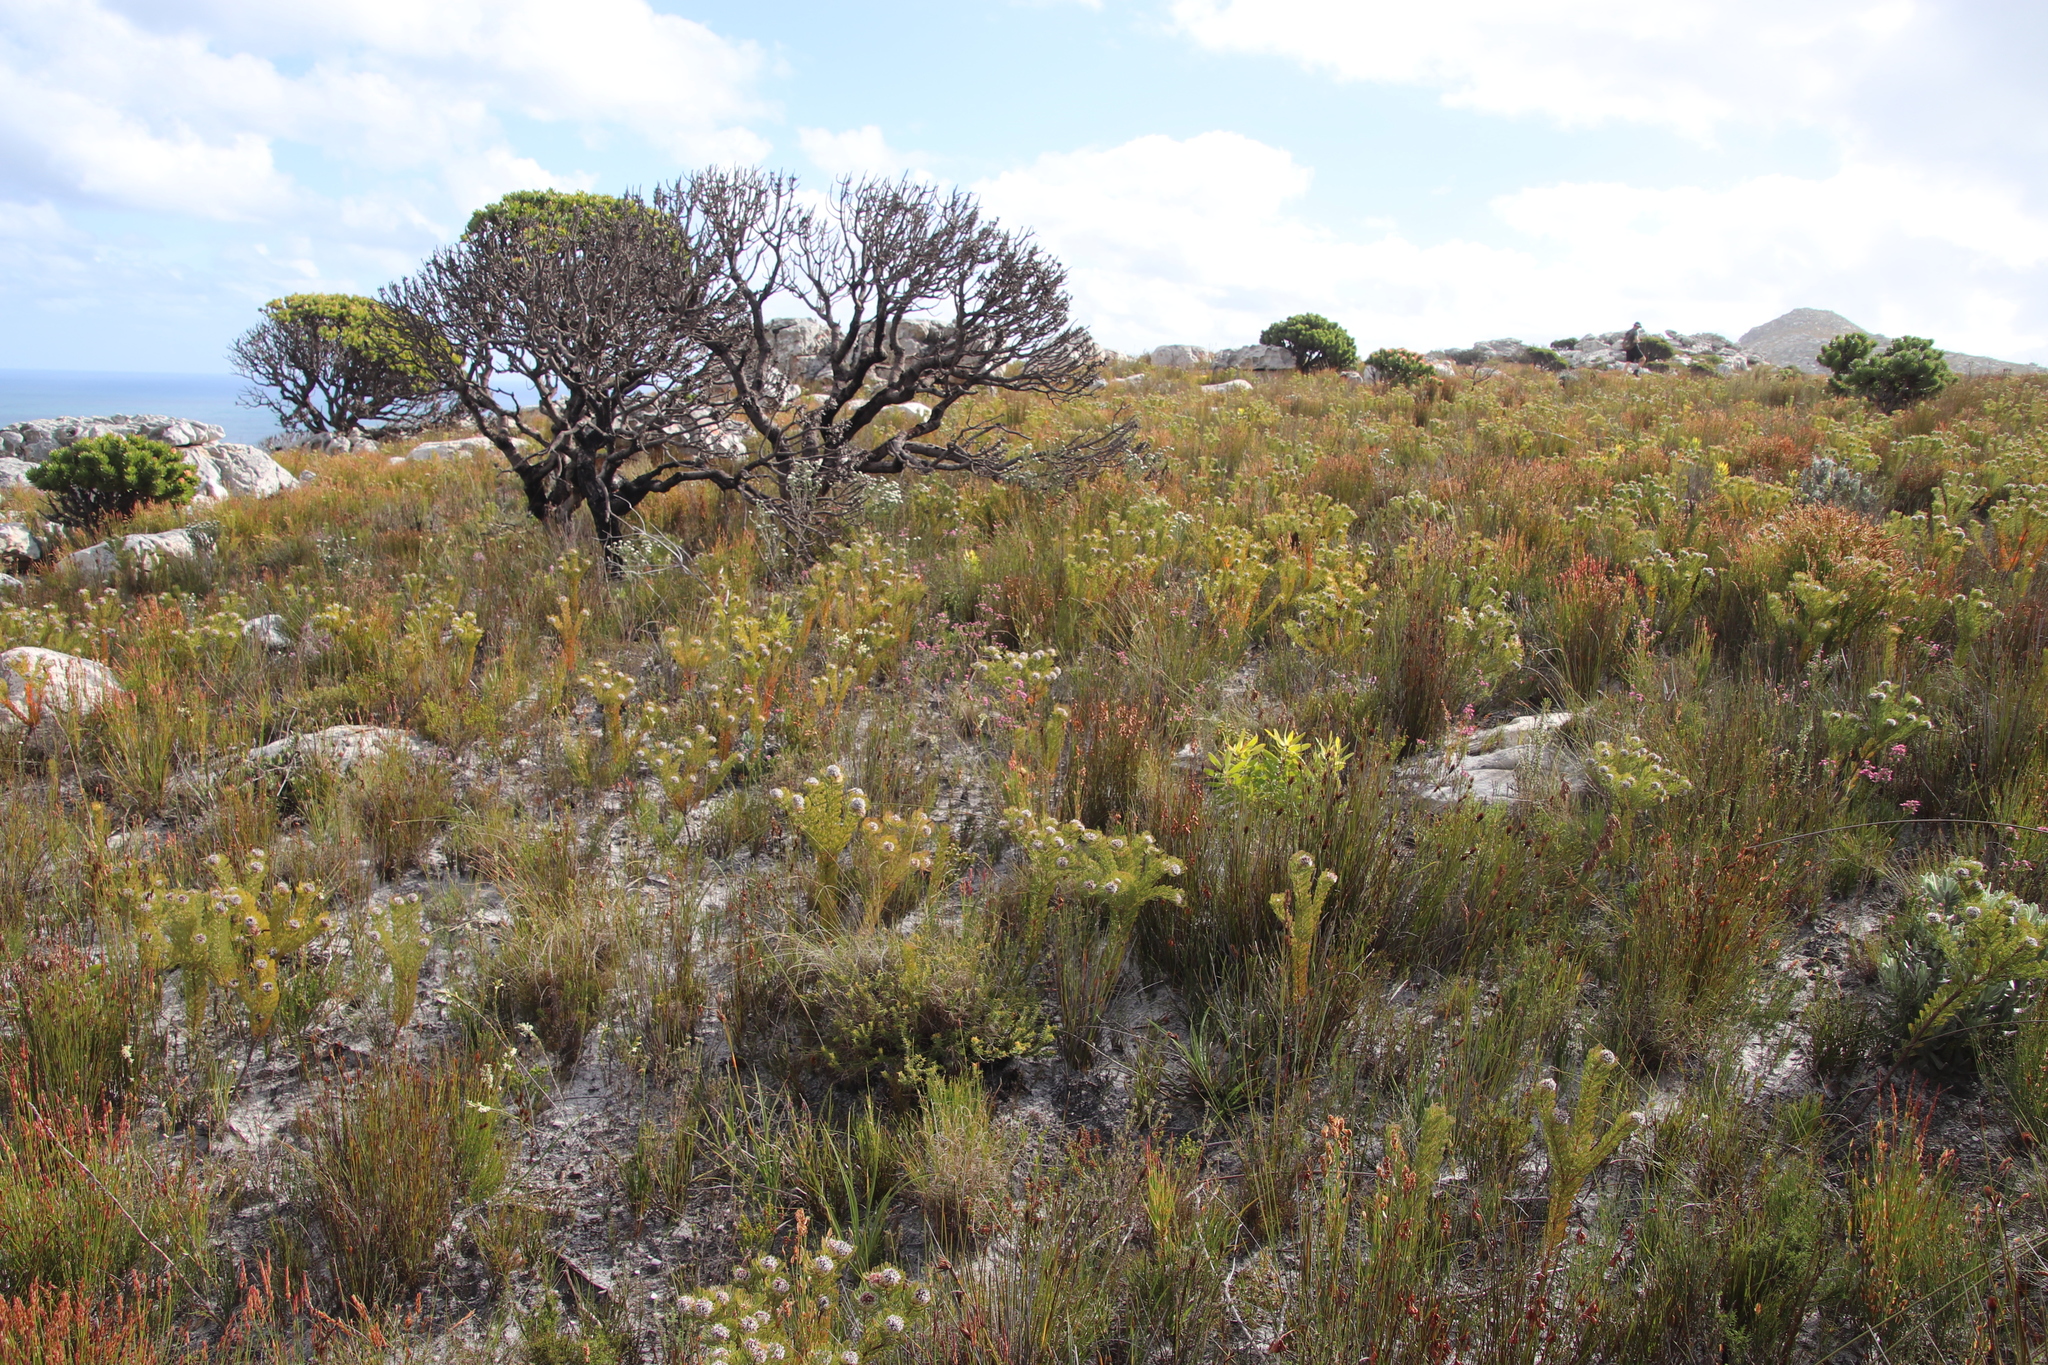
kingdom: Plantae
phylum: Tracheophyta
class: Magnoliopsida
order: Proteales
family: Proteaceae
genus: Mimetes
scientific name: Mimetes fimbriifolius
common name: Fringed bottlebrush
